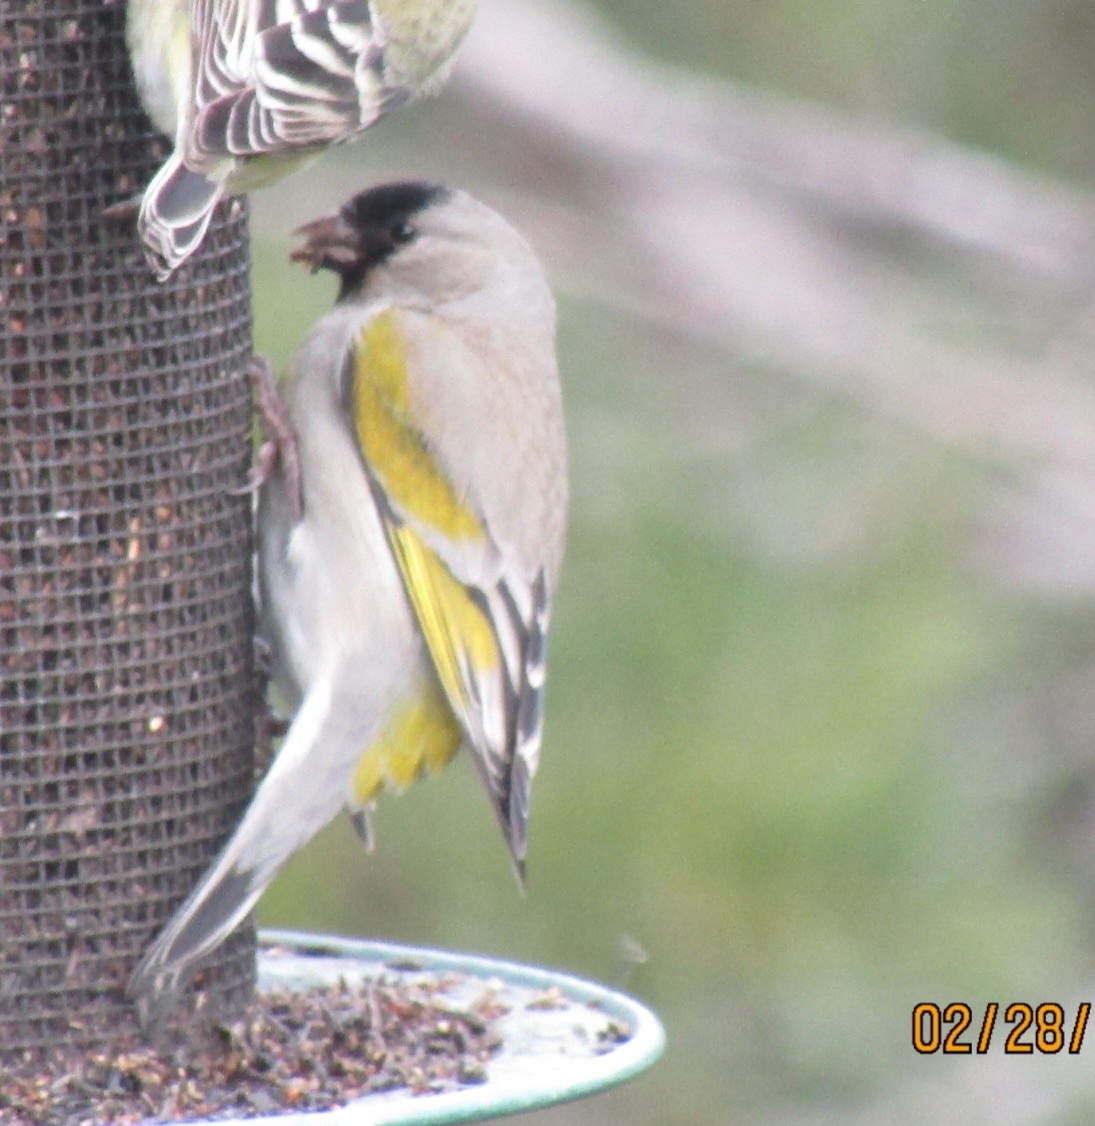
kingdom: Animalia
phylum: Chordata
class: Aves
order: Passeriformes
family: Fringillidae
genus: Spinus
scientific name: Spinus lawrencei
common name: Lawrence's goldfinch
